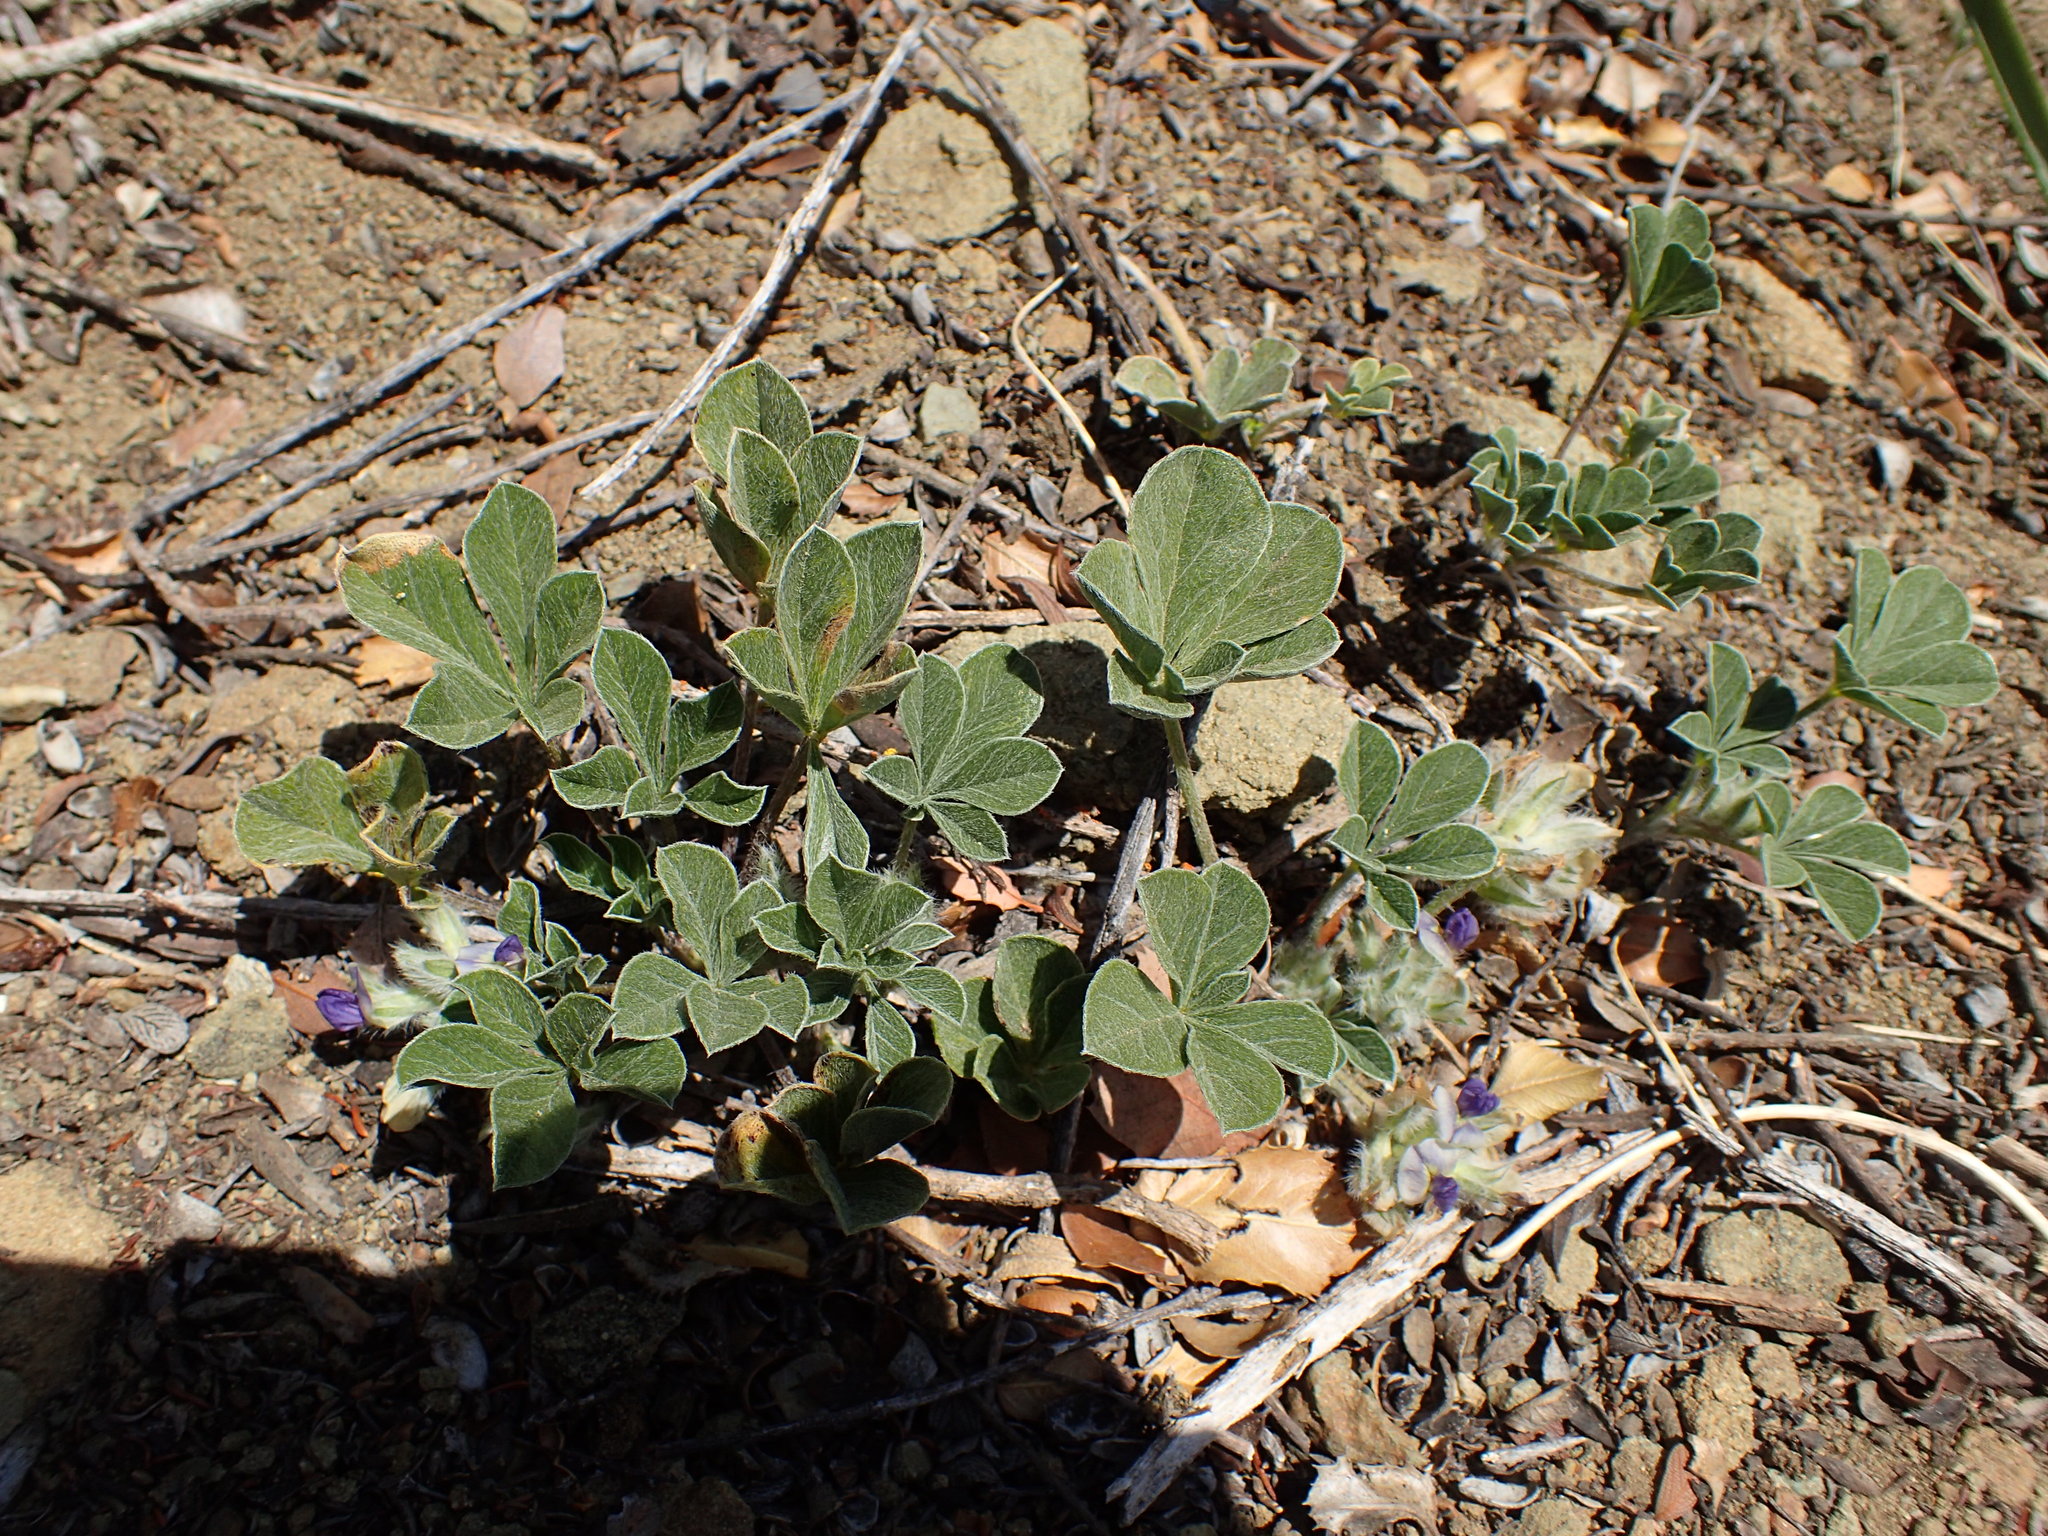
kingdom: Plantae
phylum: Tracheophyta
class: Magnoliopsida
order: Fabales
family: Fabaceae
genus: Pediomelum
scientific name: Pediomelum californicum
